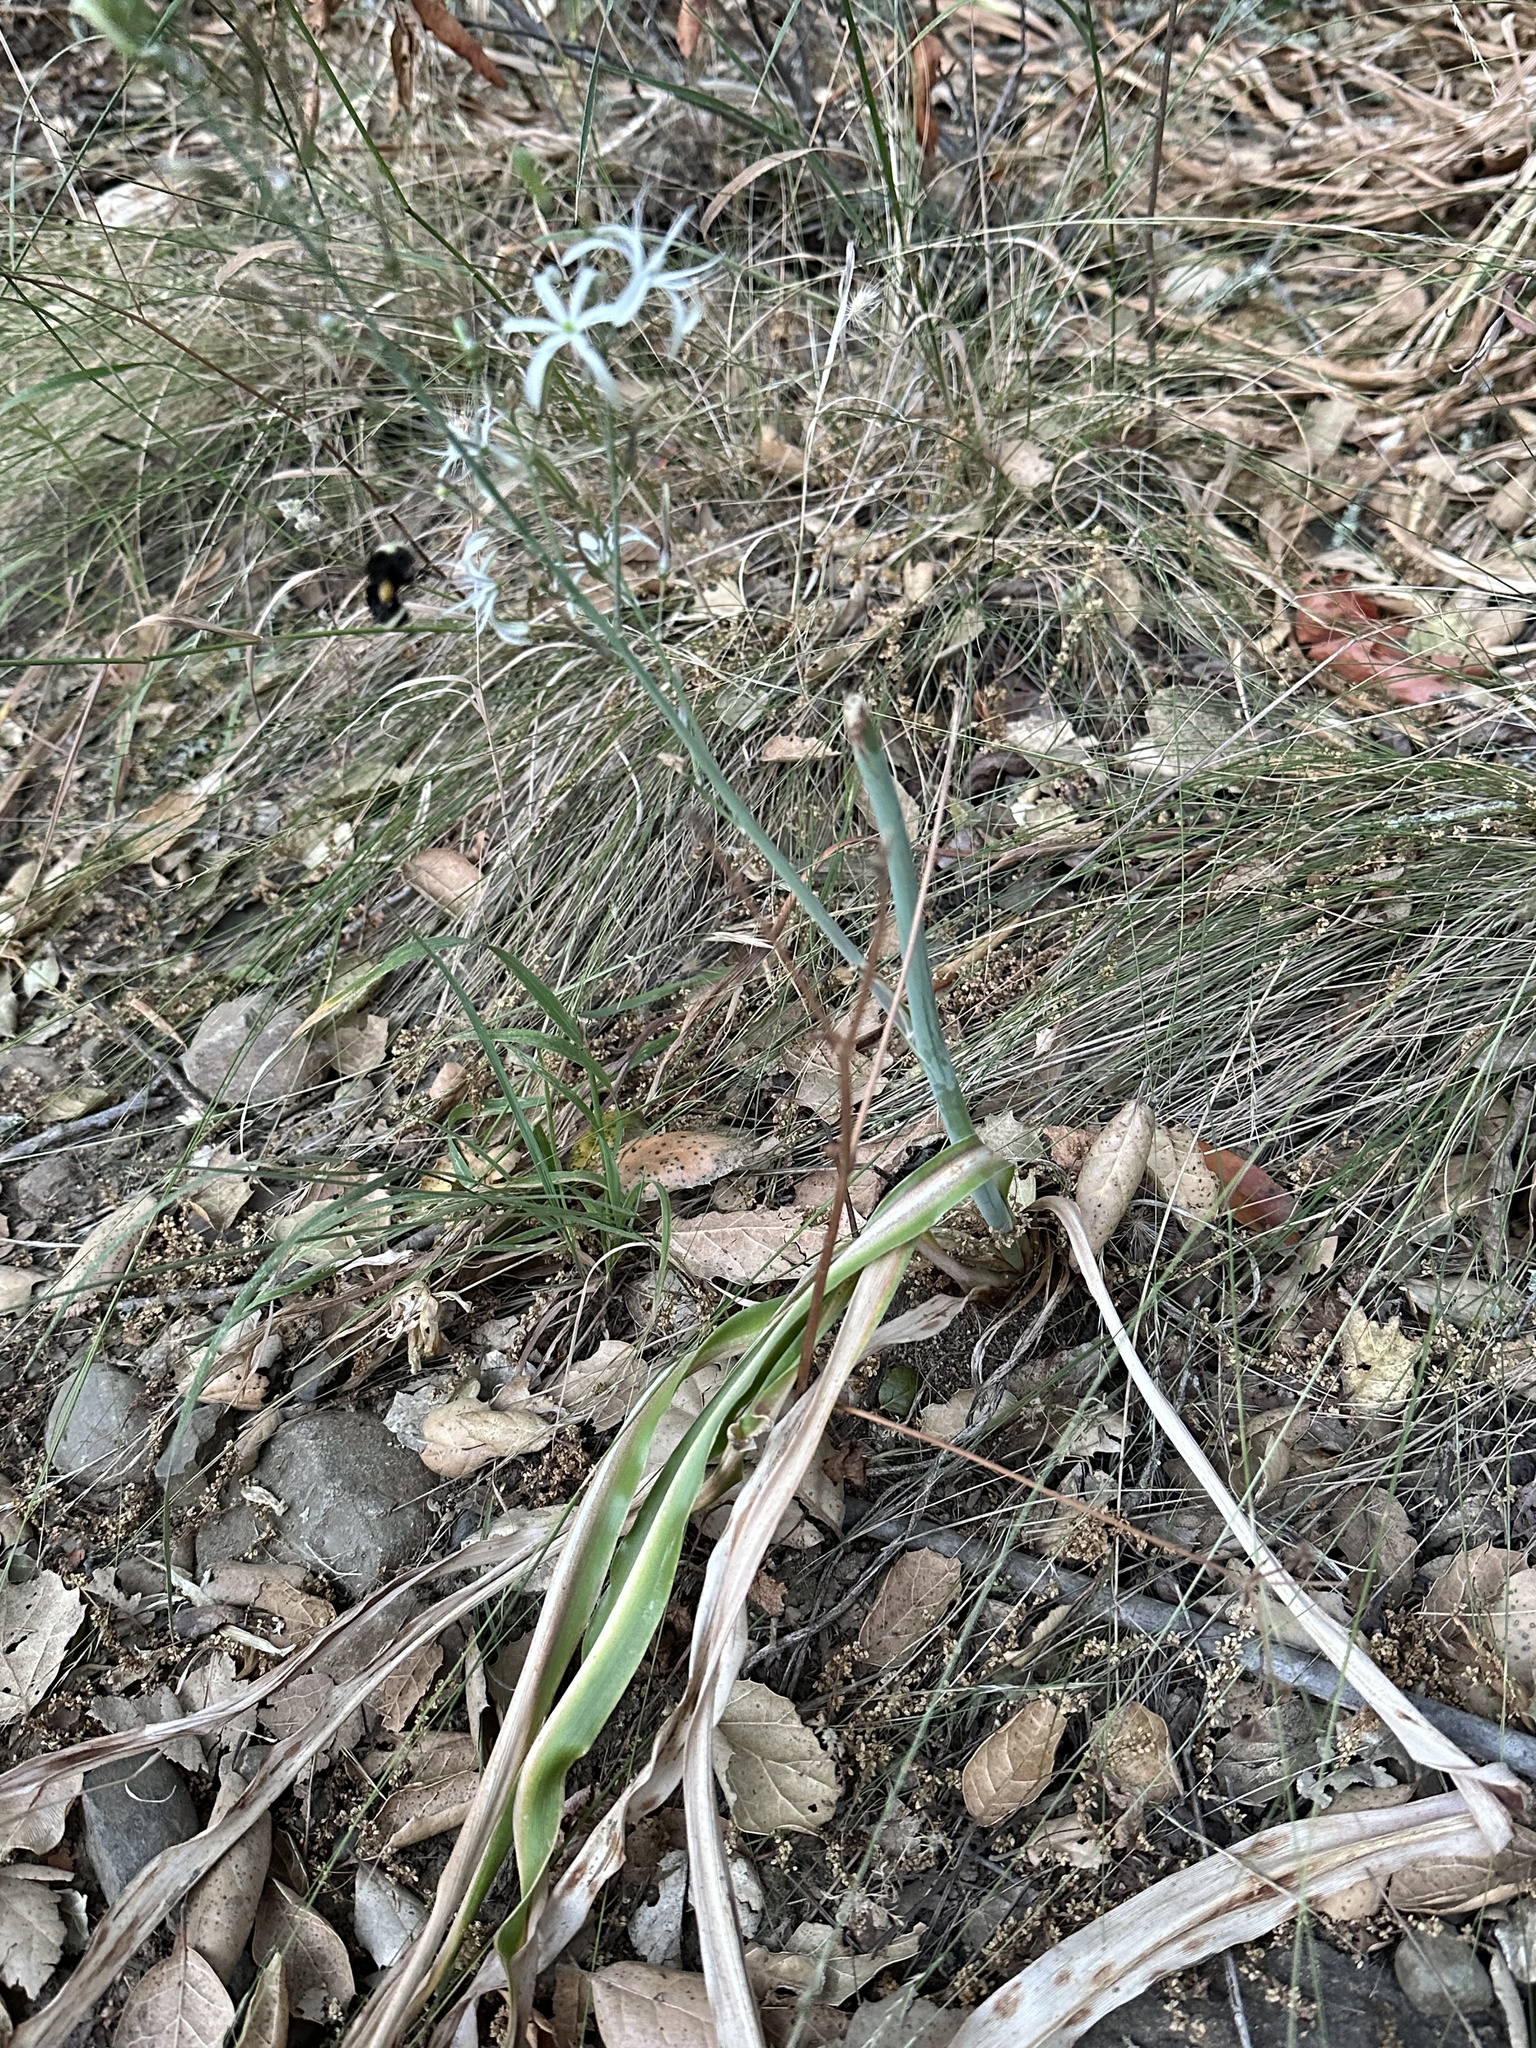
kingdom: Plantae
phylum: Tracheophyta
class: Liliopsida
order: Asparagales
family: Asparagaceae
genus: Chlorogalum
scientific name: Chlorogalum pomeridianum
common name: Amole
